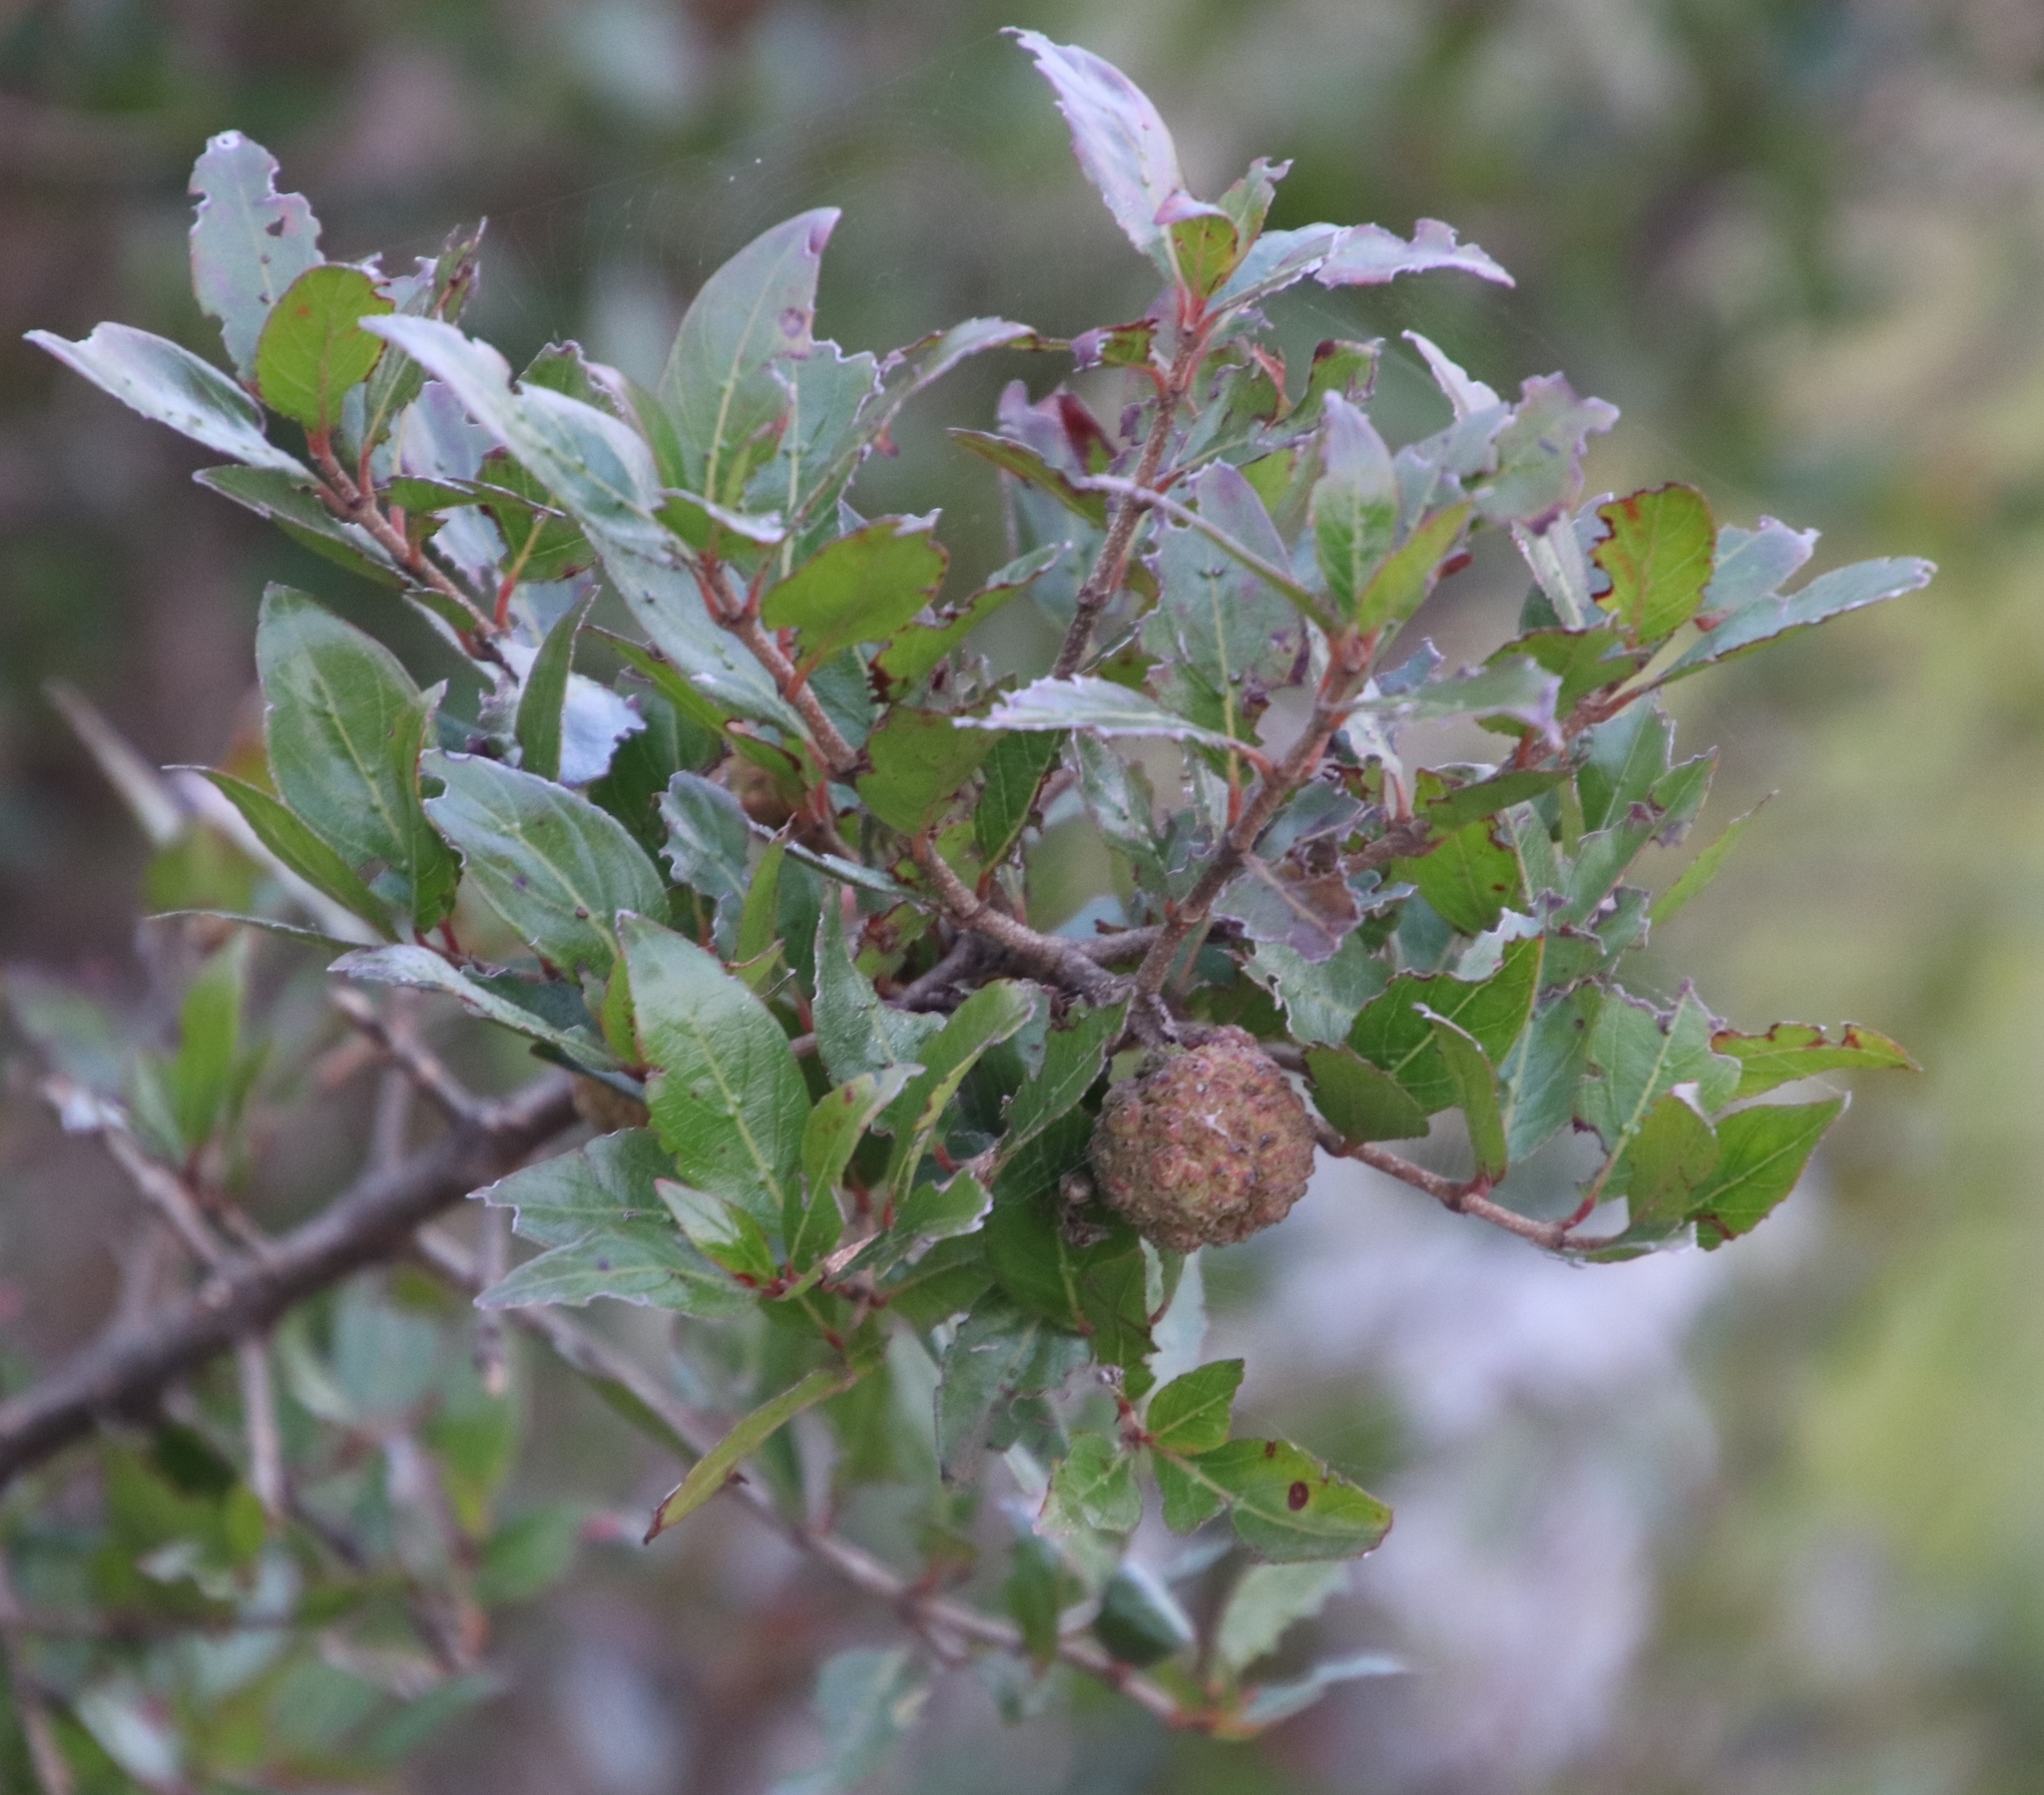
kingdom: Plantae
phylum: Tracheophyta
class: Magnoliopsida
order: Gentianales
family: Rubiaceae
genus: Cephalanthus
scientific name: Cephalanthus natalensis
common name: Strawberry bush
